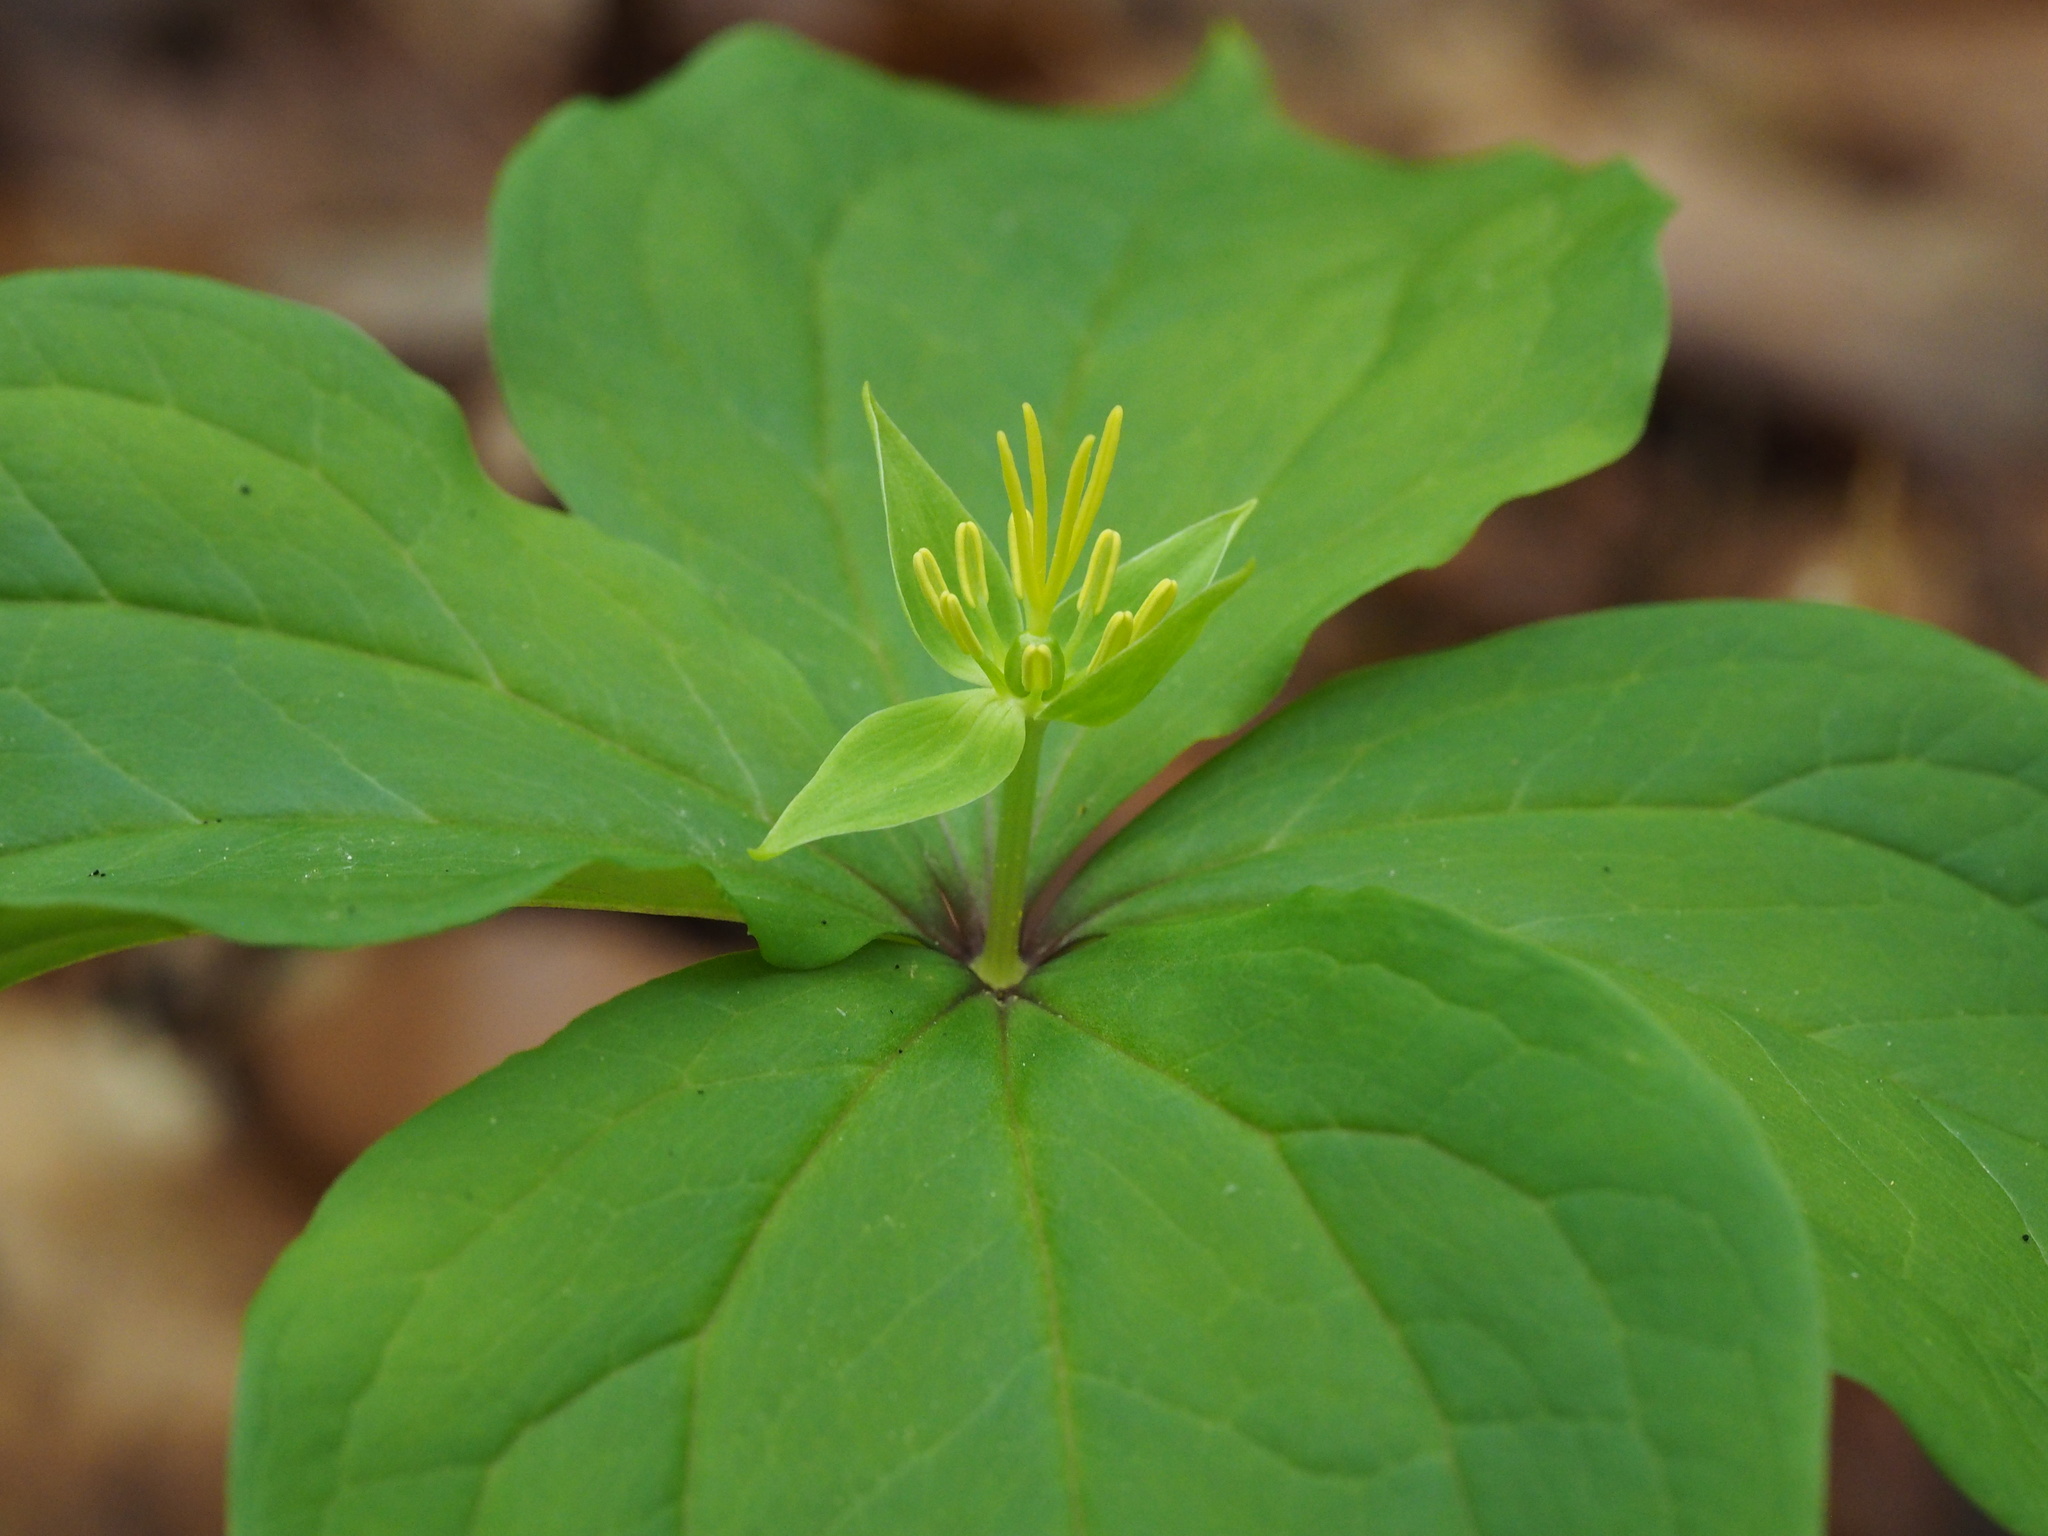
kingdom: Plantae
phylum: Tracheophyta
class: Liliopsida
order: Liliales
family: Melanthiaceae
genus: Paris
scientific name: Paris tetraphylla
